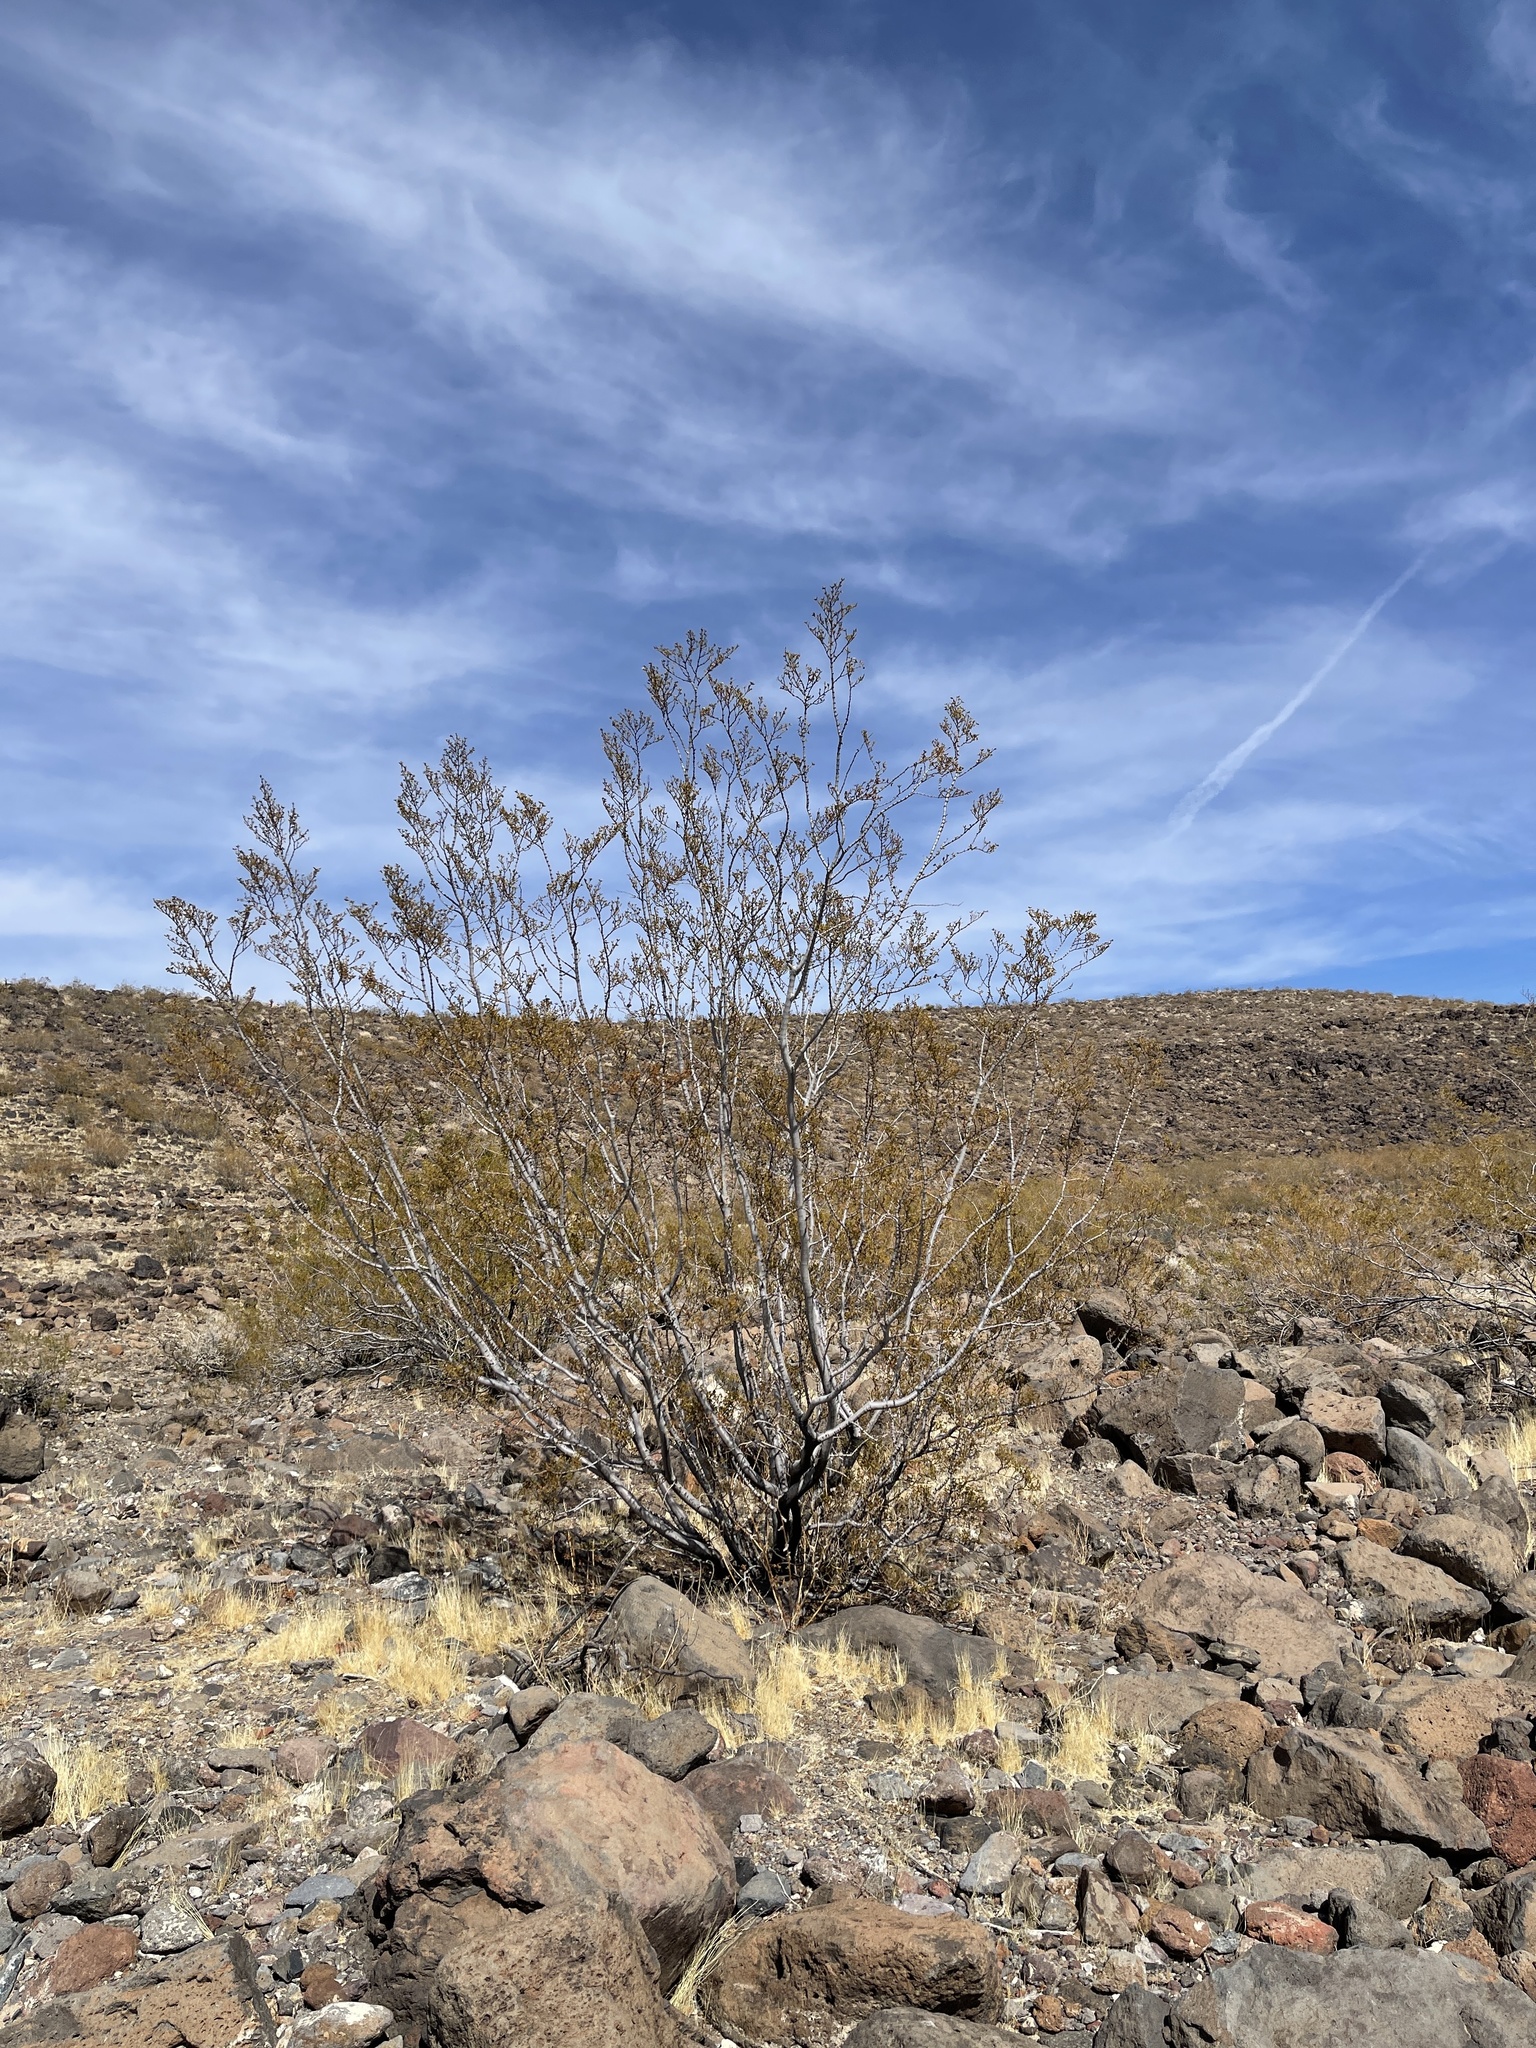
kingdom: Plantae
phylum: Tracheophyta
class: Magnoliopsida
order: Zygophyllales
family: Zygophyllaceae
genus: Larrea
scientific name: Larrea tridentata
